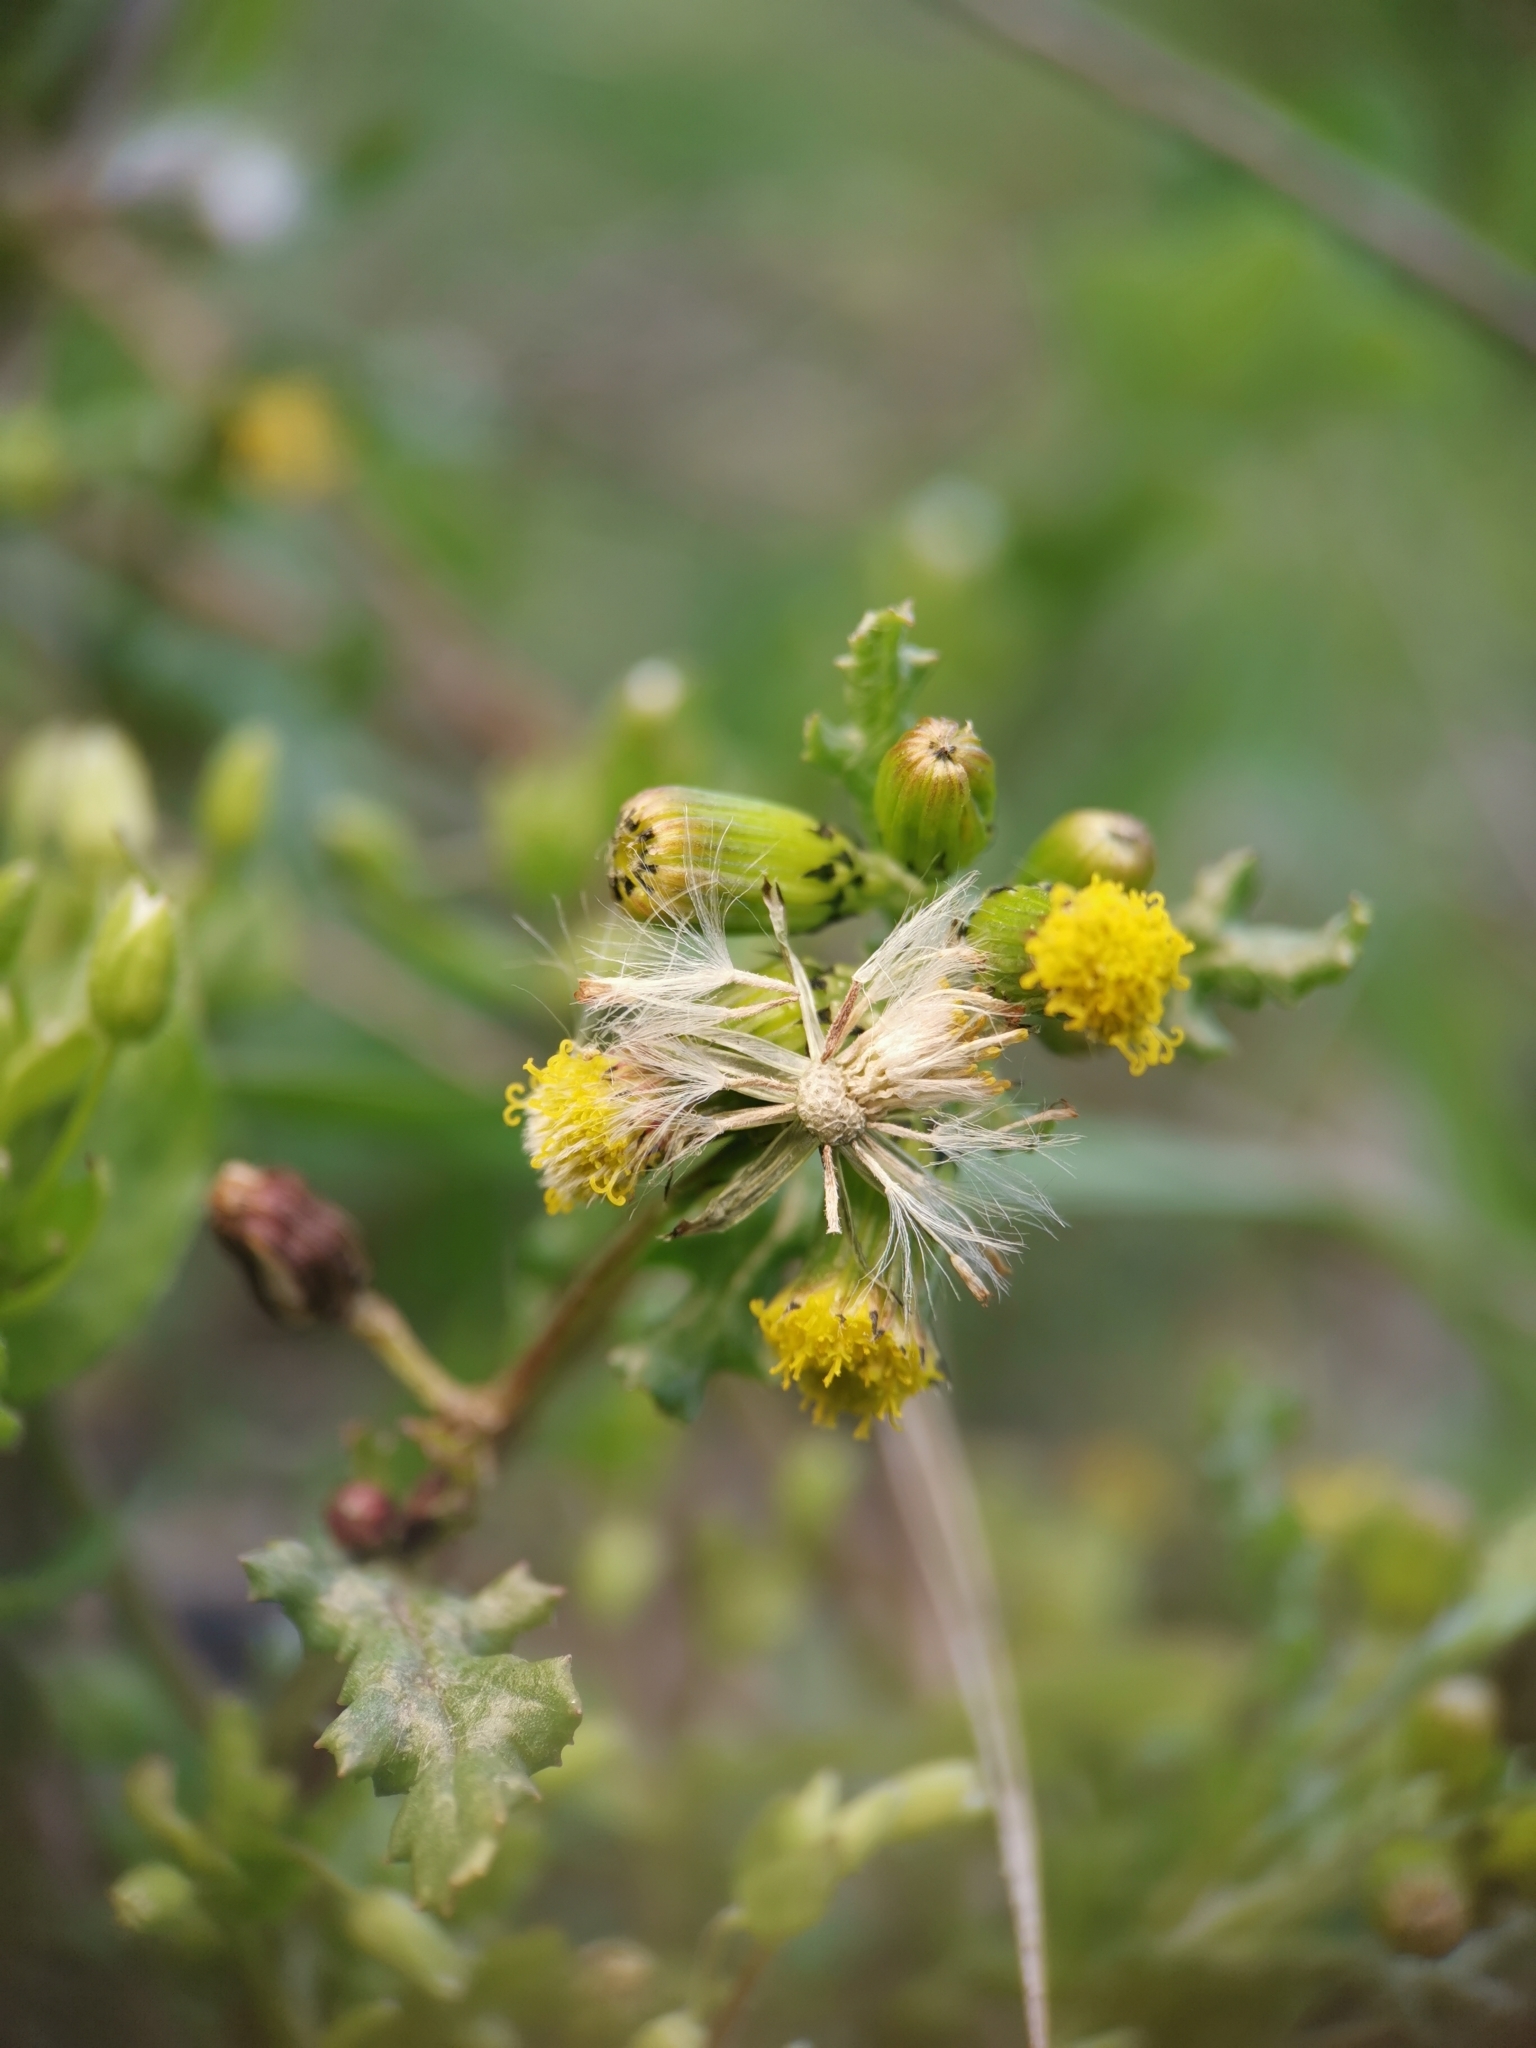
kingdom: Plantae
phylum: Tracheophyta
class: Magnoliopsida
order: Asterales
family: Asteraceae
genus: Senecio
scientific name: Senecio vulgaris
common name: Old-man-in-the-spring
